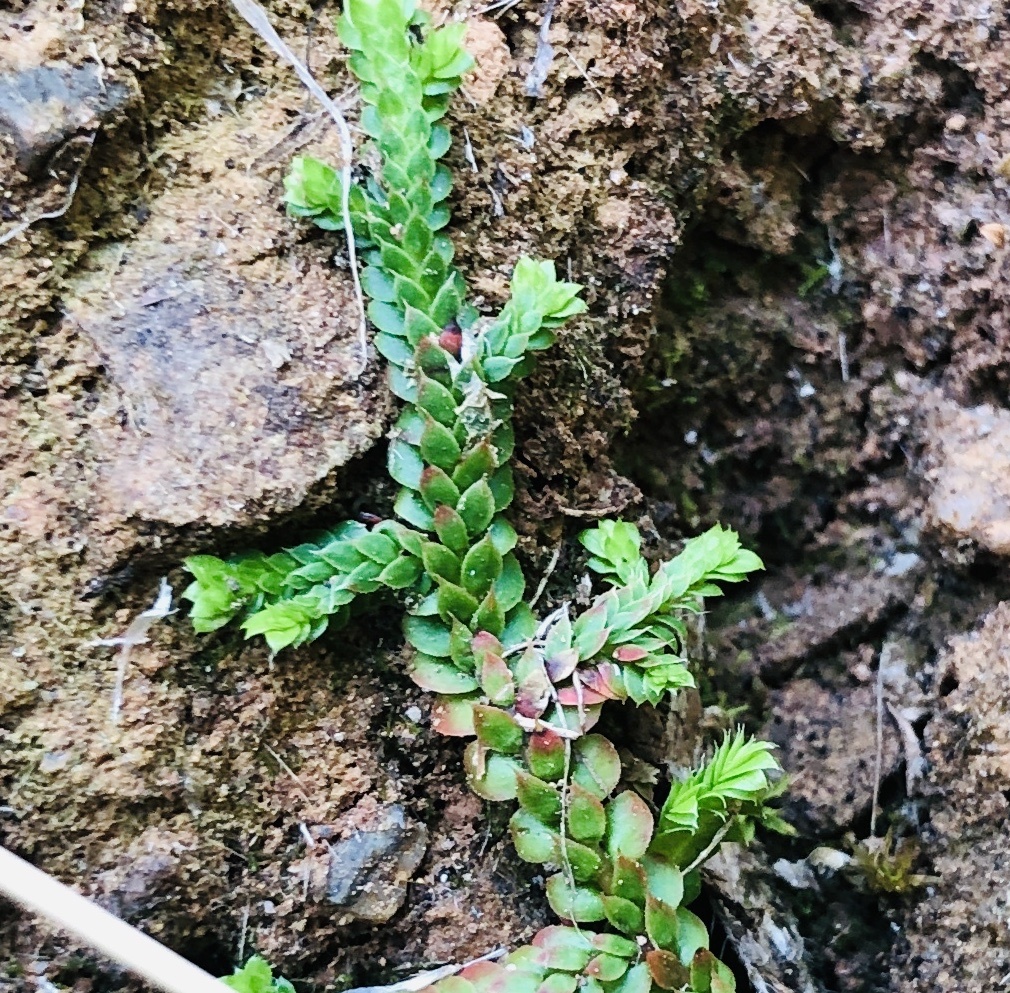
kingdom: Plantae
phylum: Tracheophyta
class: Lycopodiopsida
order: Selaginellales
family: Selaginellaceae
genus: Selaginella
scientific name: Selaginella denticulata
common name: Toothed-leaved clubmoss
